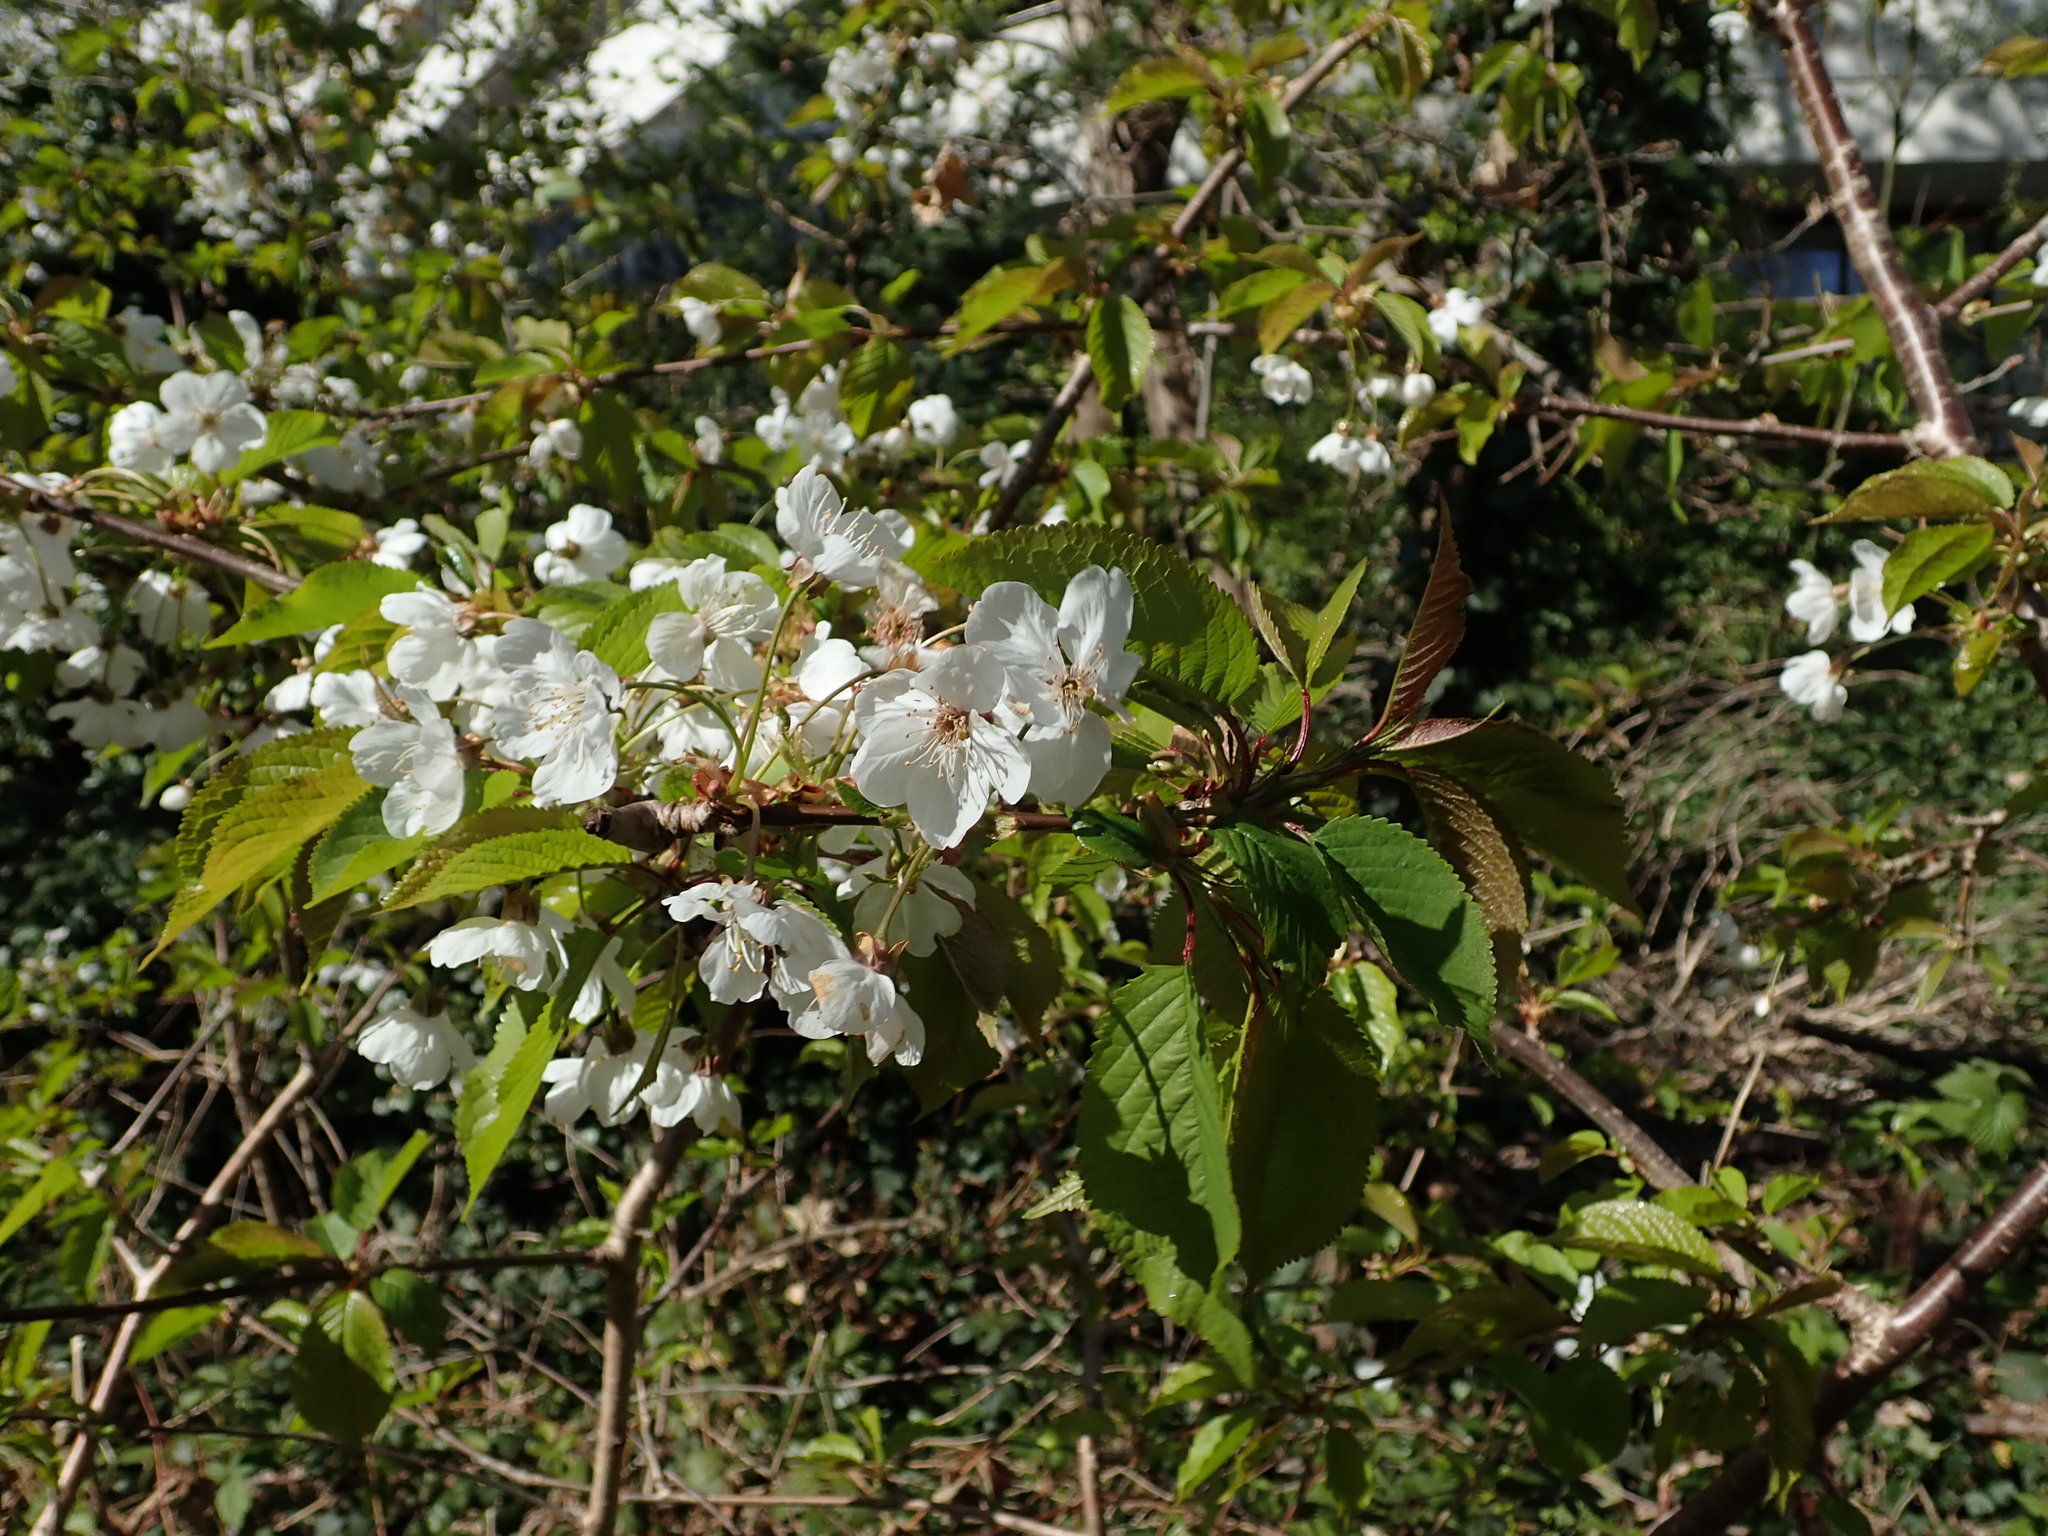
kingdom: Plantae
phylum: Tracheophyta
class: Magnoliopsida
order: Rosales
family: Rosaceae
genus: Prunus
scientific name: Prunus avium
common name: Sweet cherry
